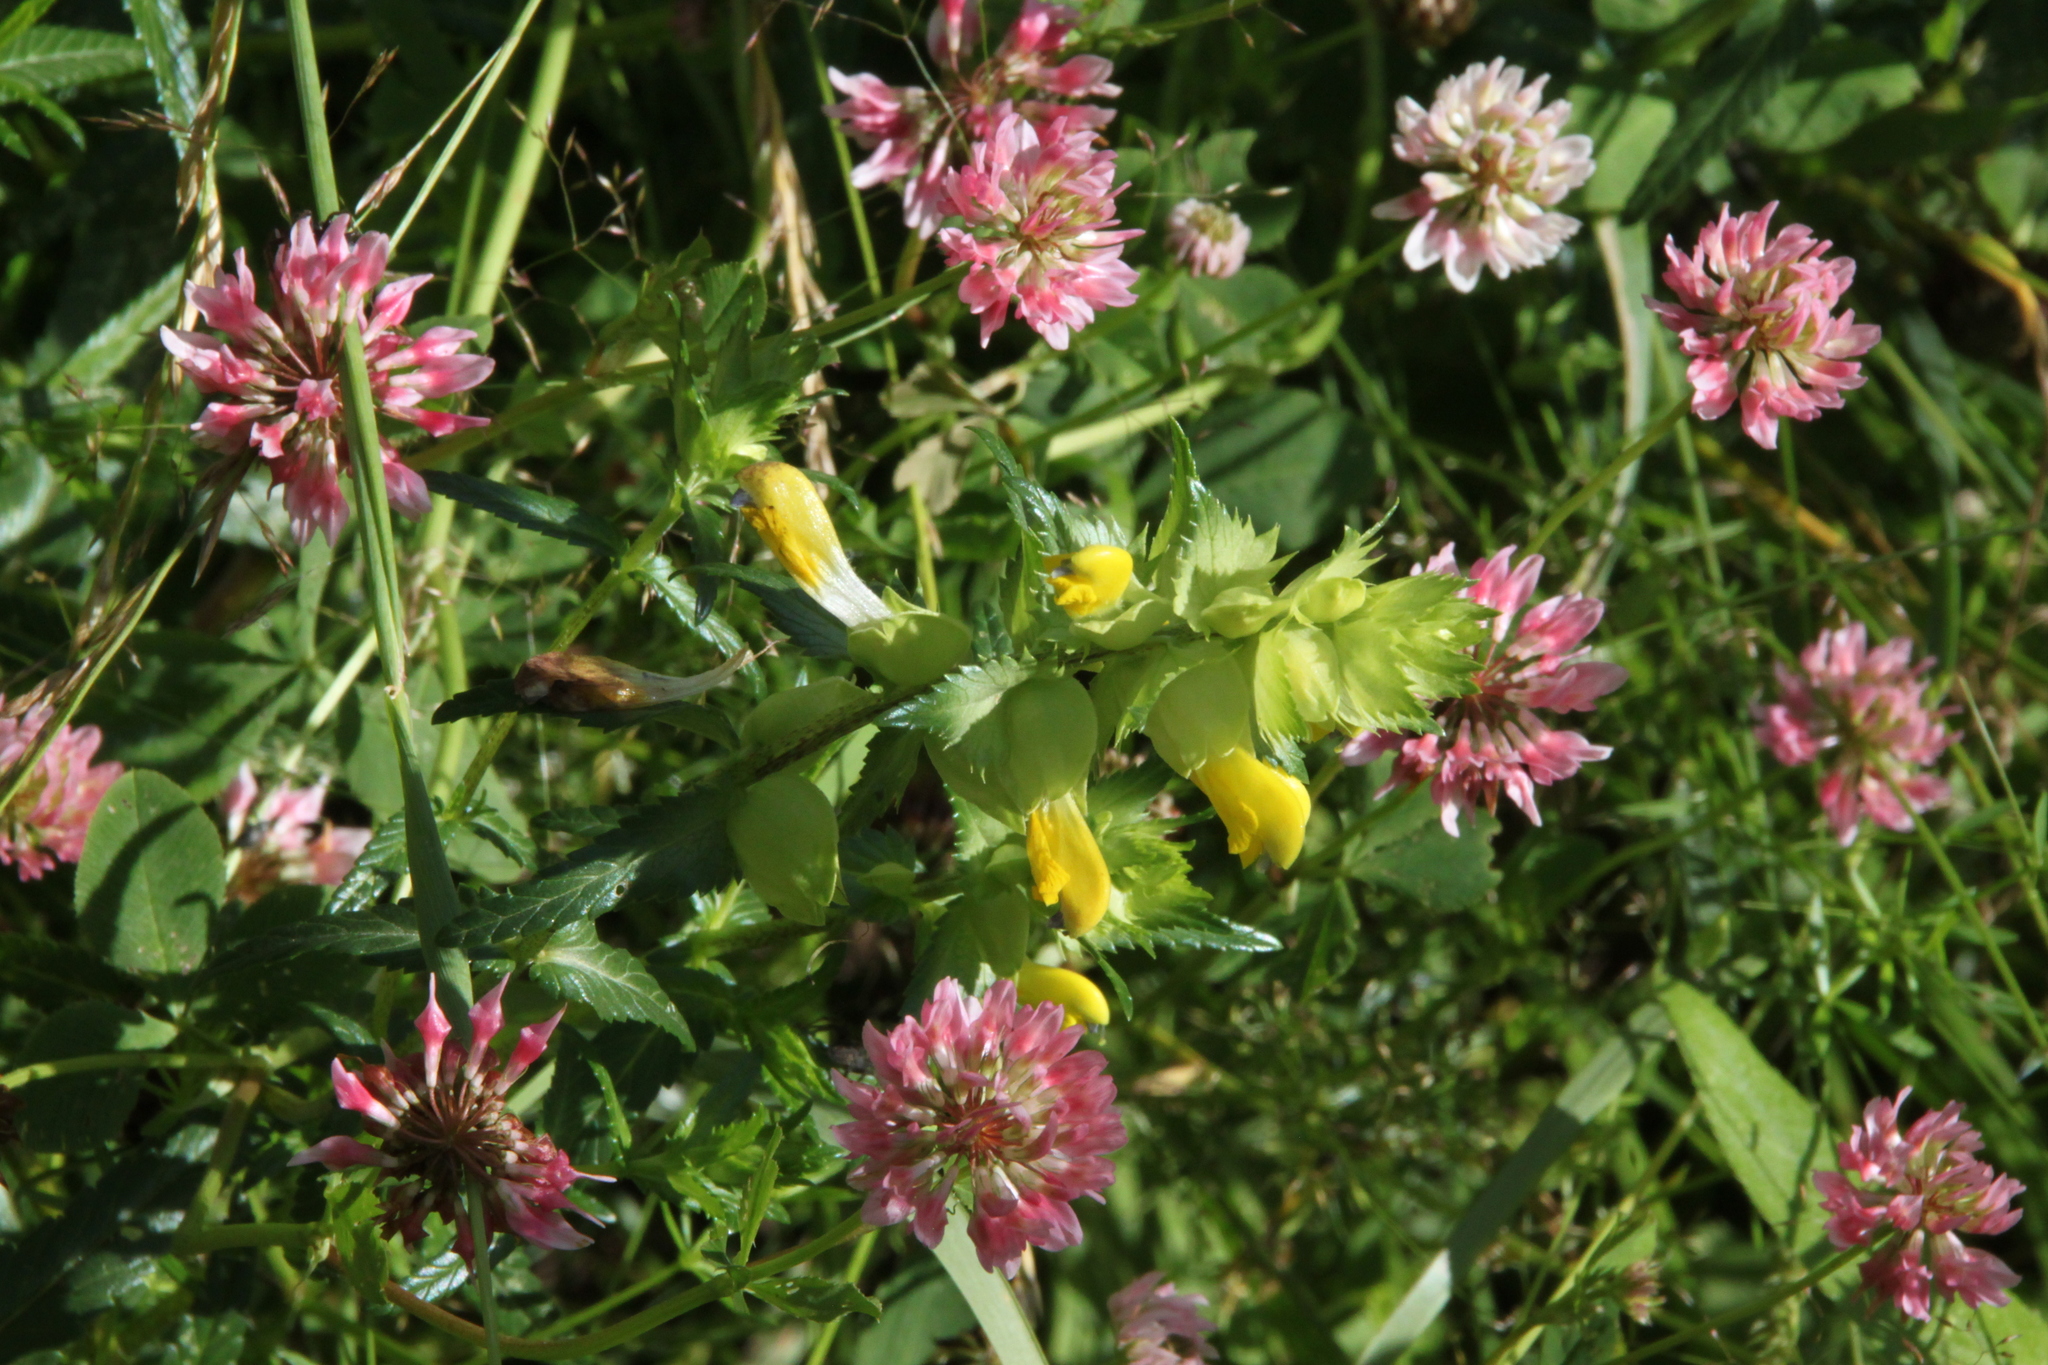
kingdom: Plantae
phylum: Tracheophyta
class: Magnoliopsida
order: Lamiales
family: Orobanchaceae
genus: Rhinanthus
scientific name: Rhinanthus serotinus
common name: Late-flowering yellow rattle
